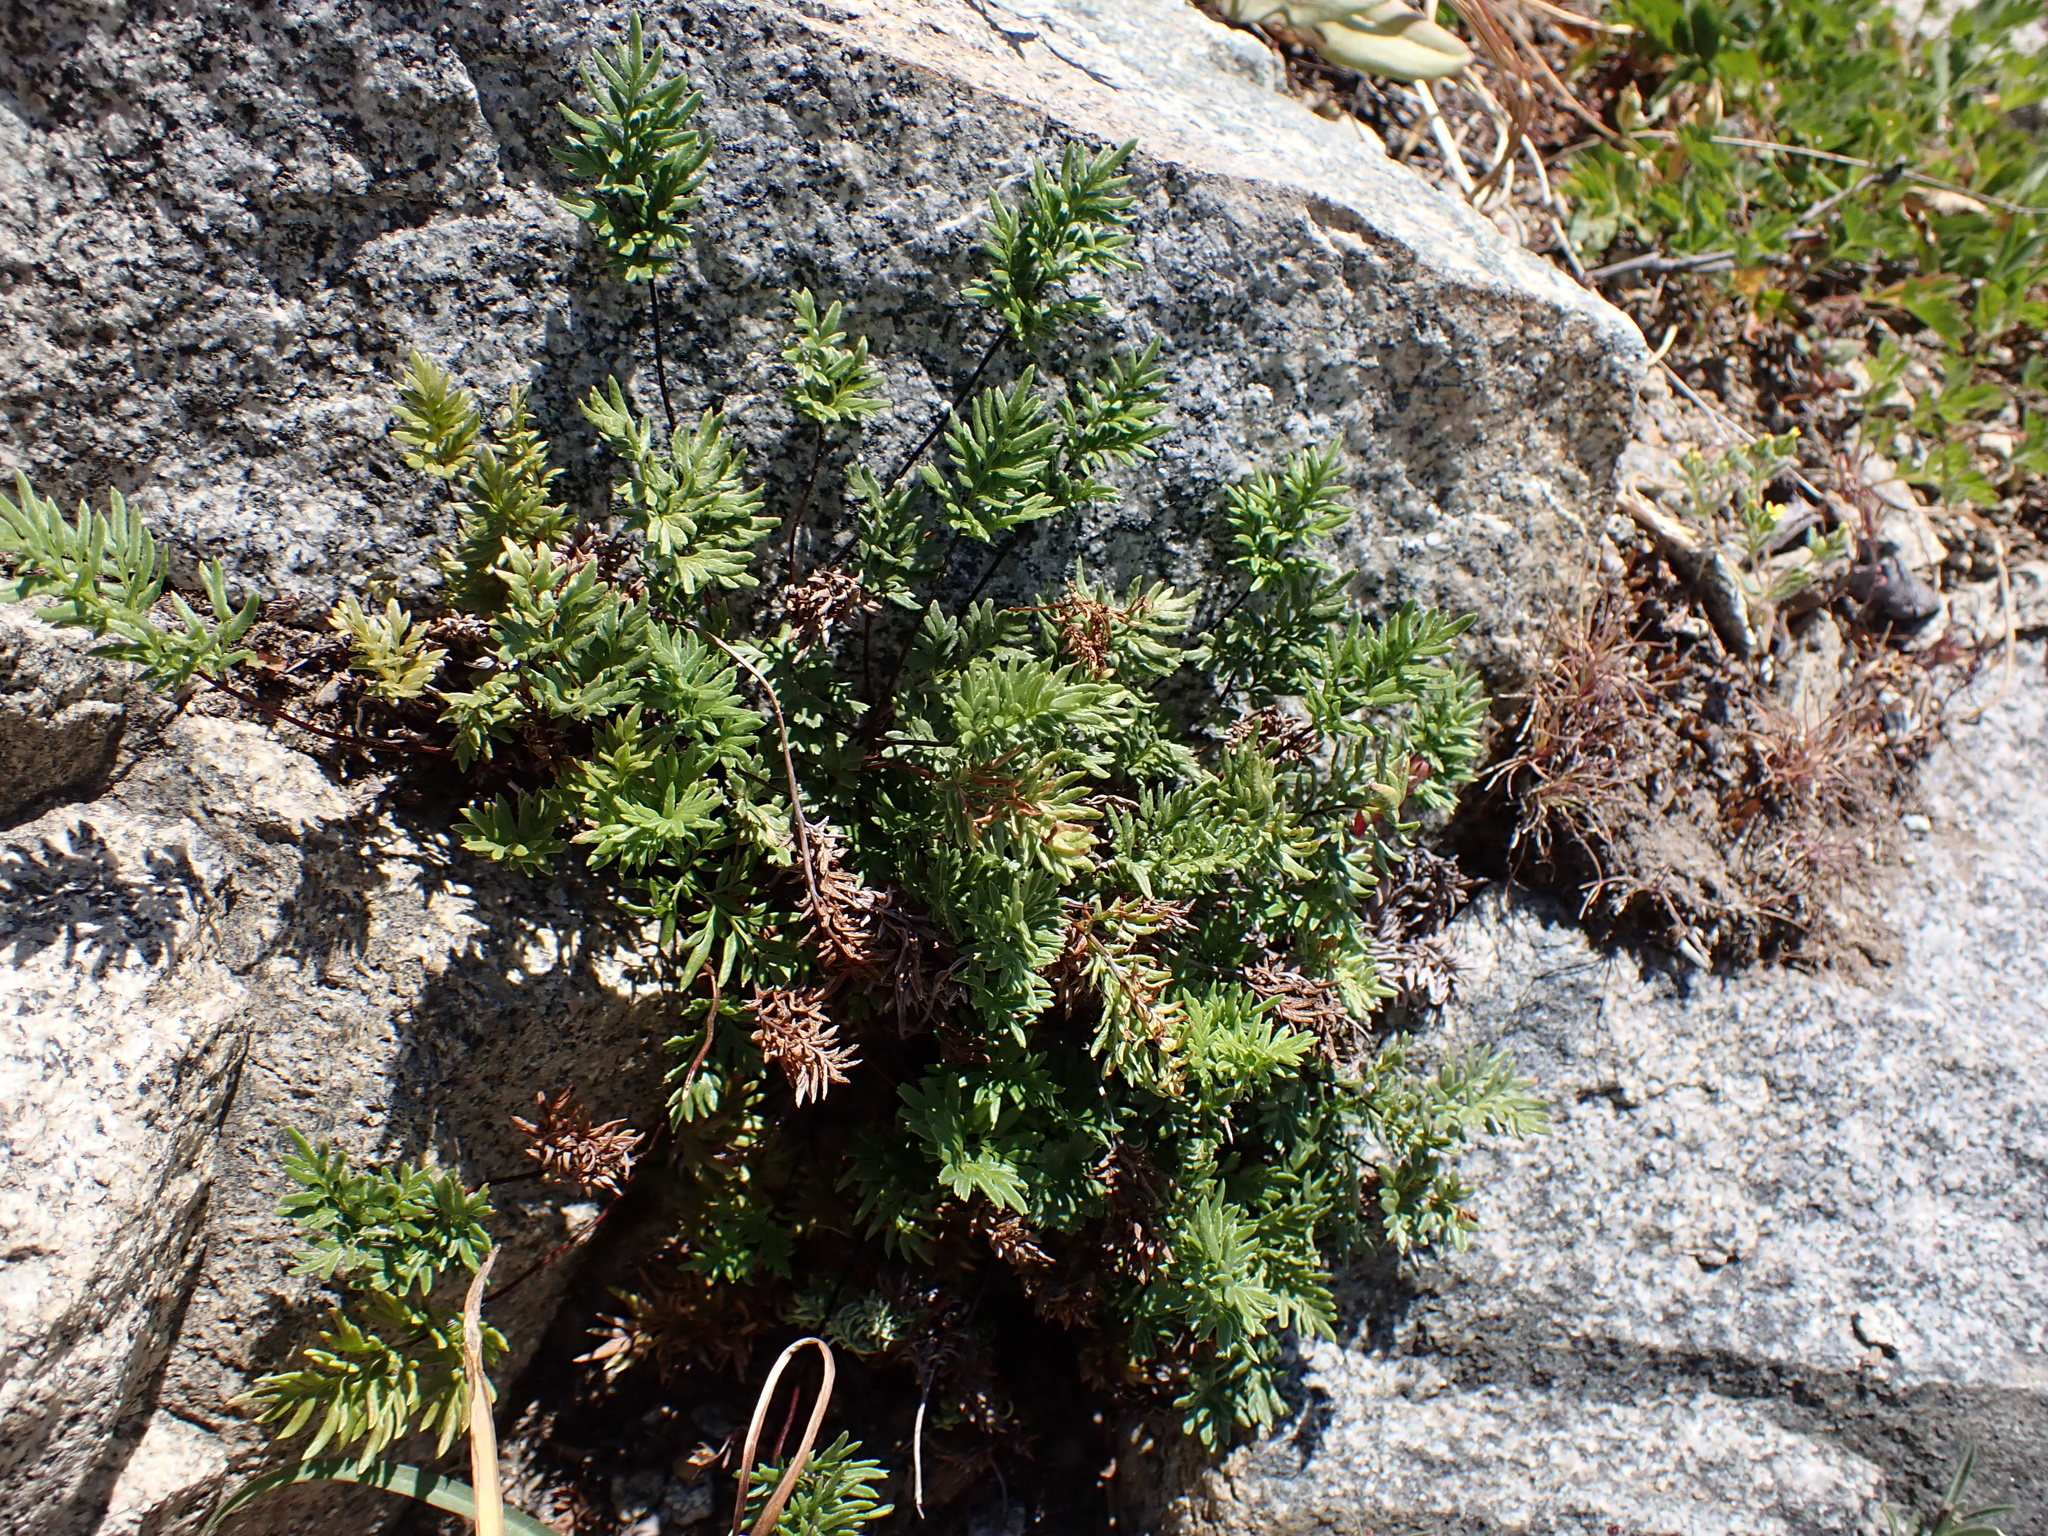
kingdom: Plantae
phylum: Tracheophyta
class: Polypodiopsida
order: Polypodiales
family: Pteridaceae
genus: Aspidotis
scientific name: Aspidotis densa
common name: Indian's dream
